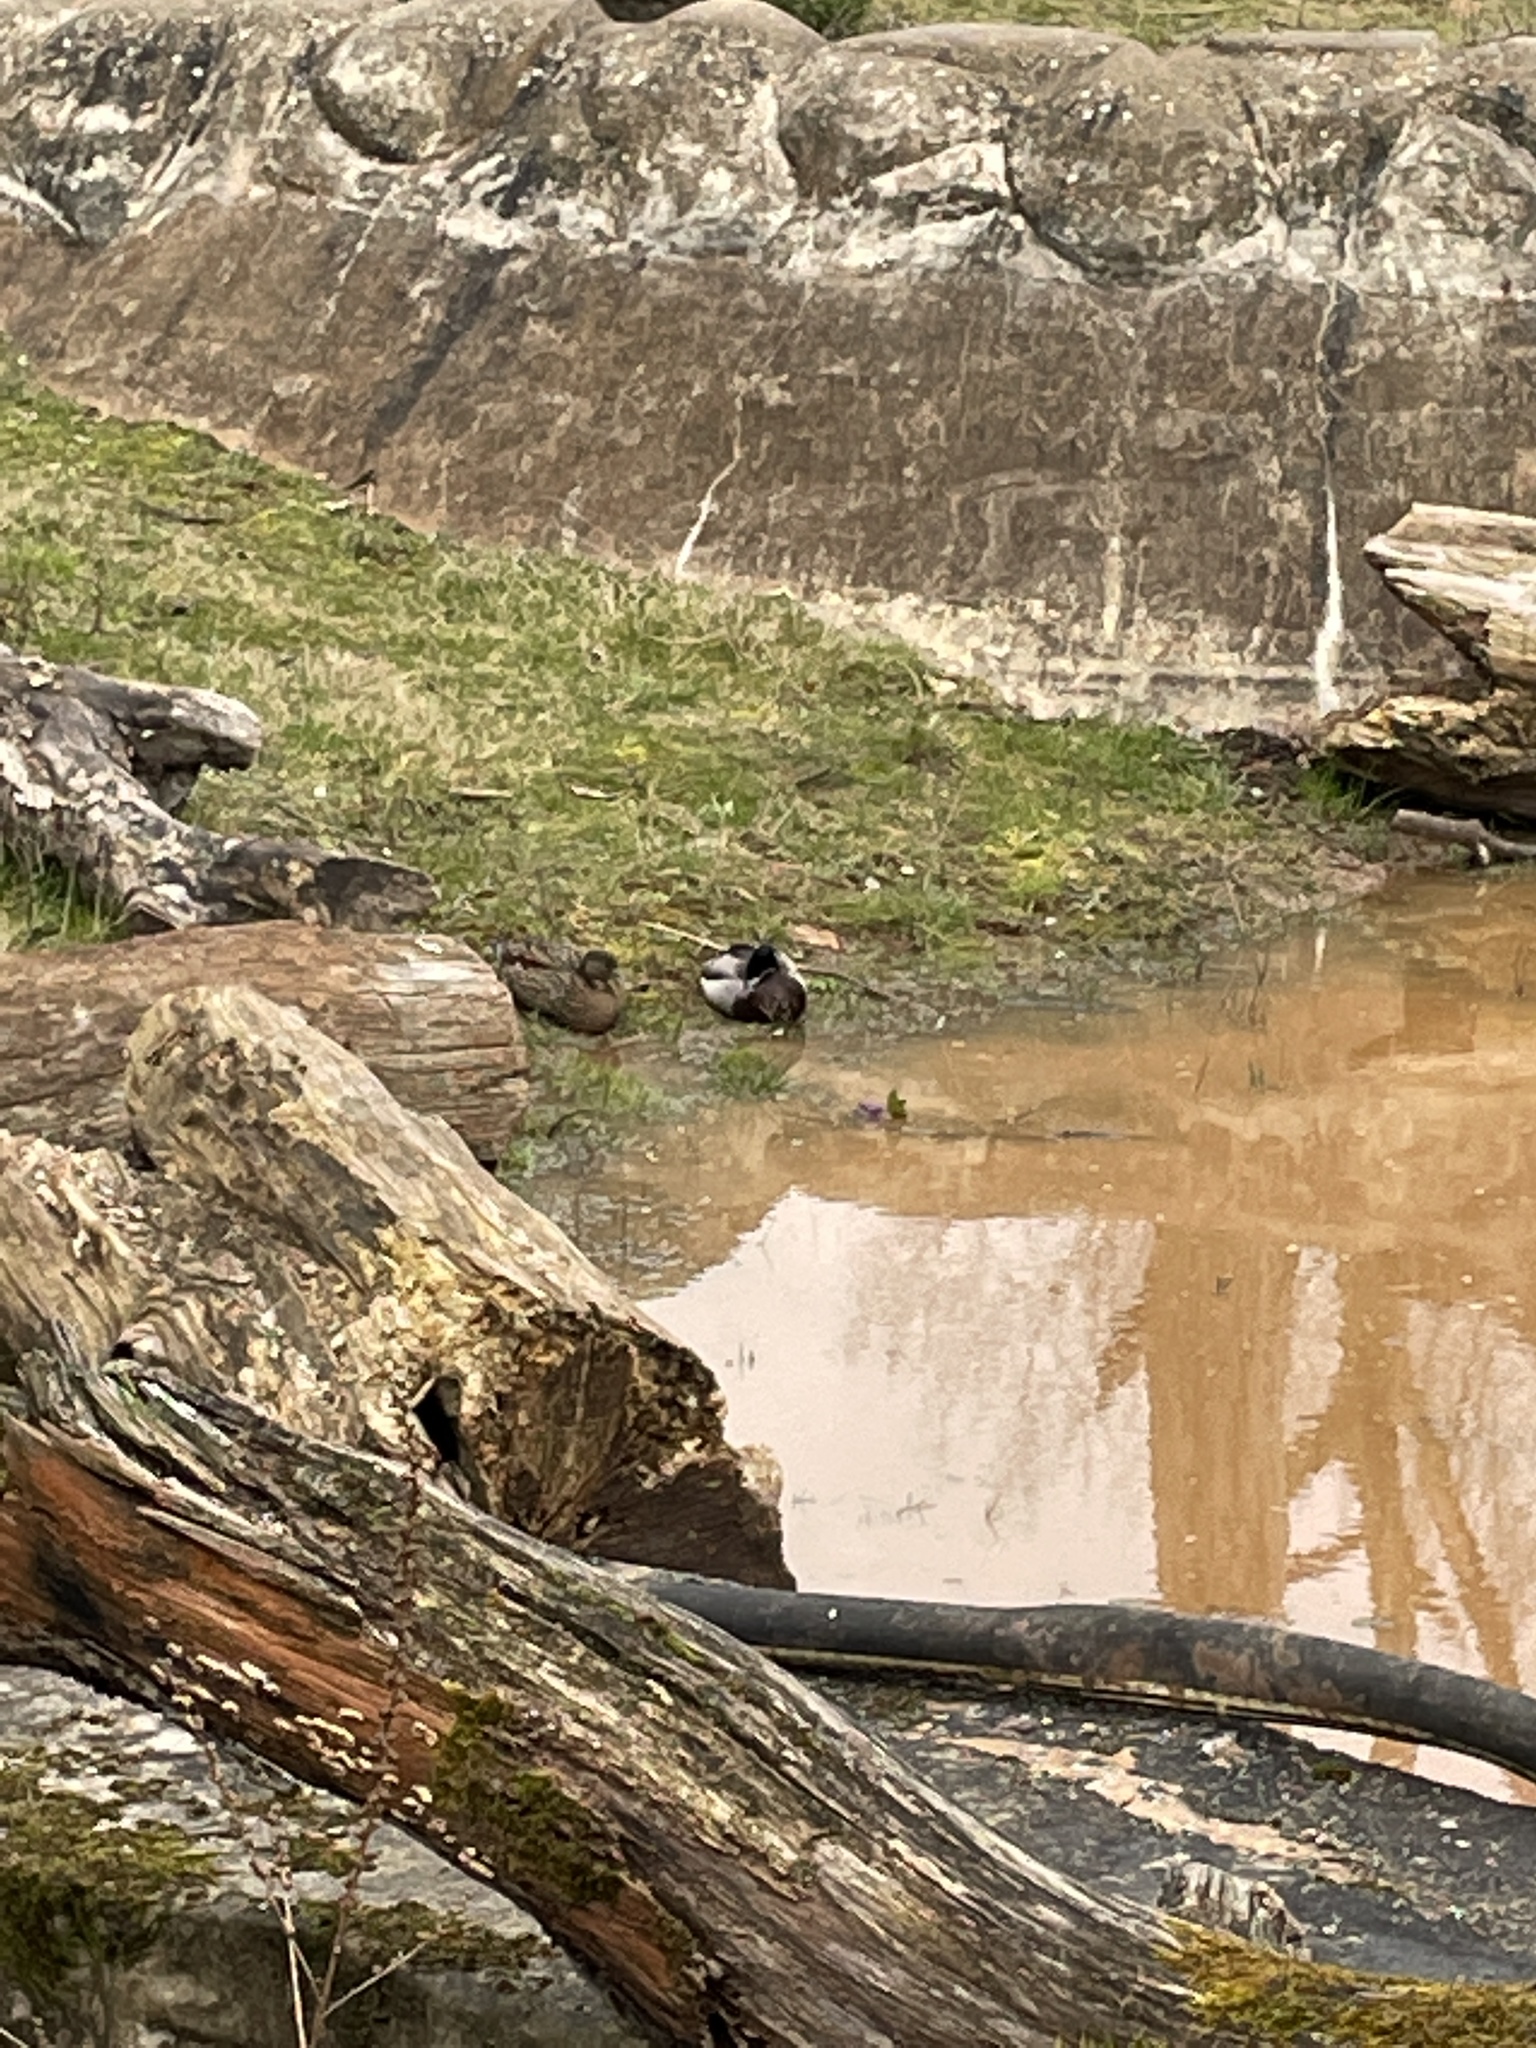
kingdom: Animalia
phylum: Chordata
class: Aves
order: Anseriformes
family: Anatidae
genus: Anas
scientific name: Anas platyrhynchos
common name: Mallard
